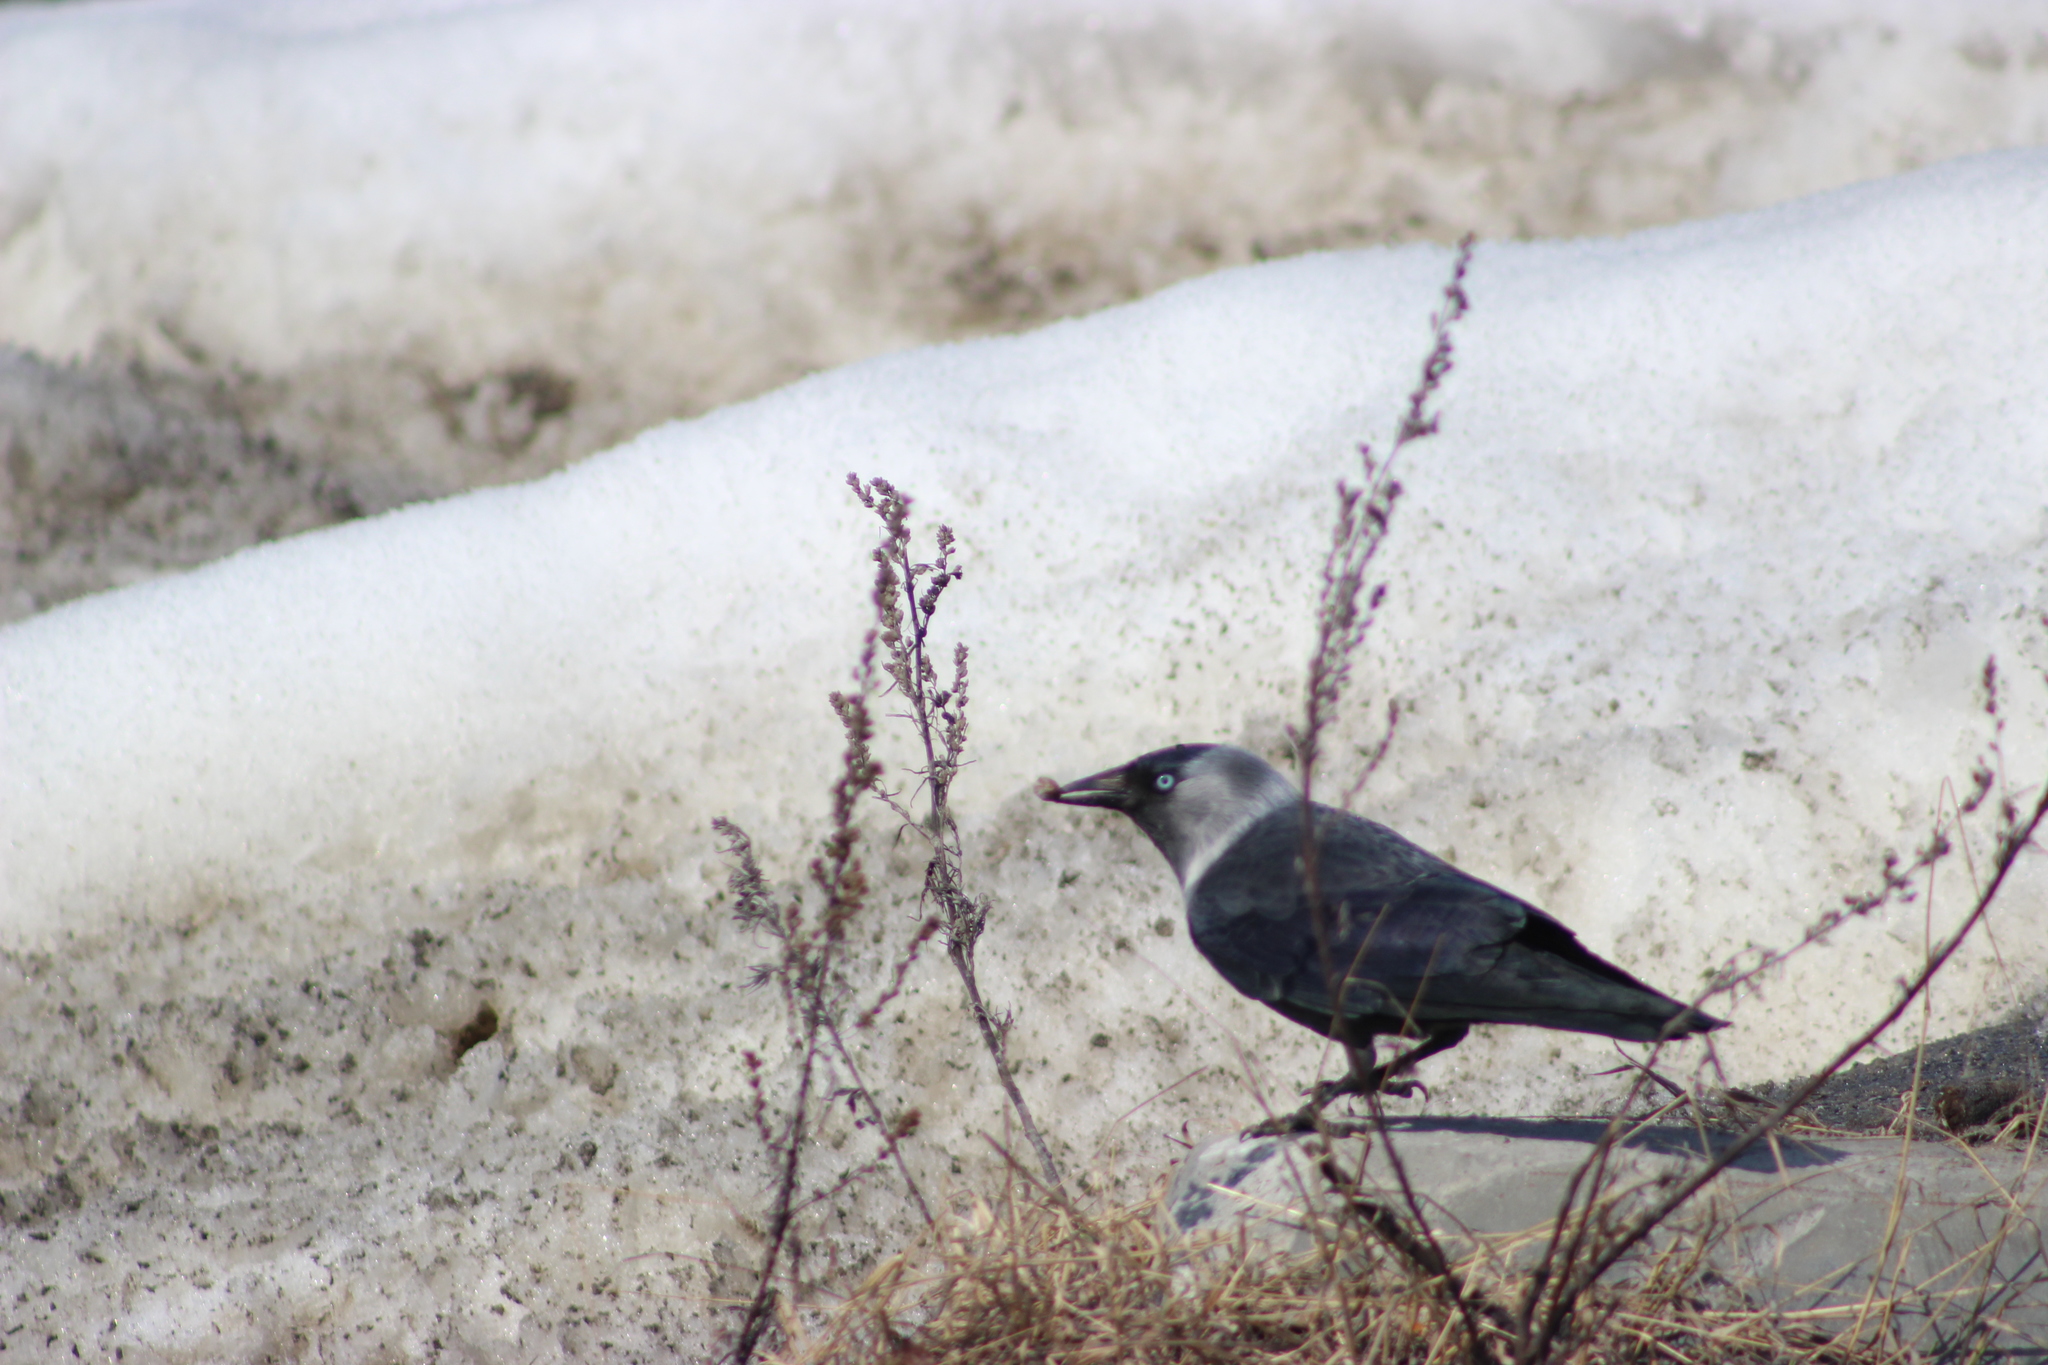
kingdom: Animalia
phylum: Chordata
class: Aves
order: Passeriformes
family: Corvidae
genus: Coloeus
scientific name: Coloeus monedula
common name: Western jackdaw
